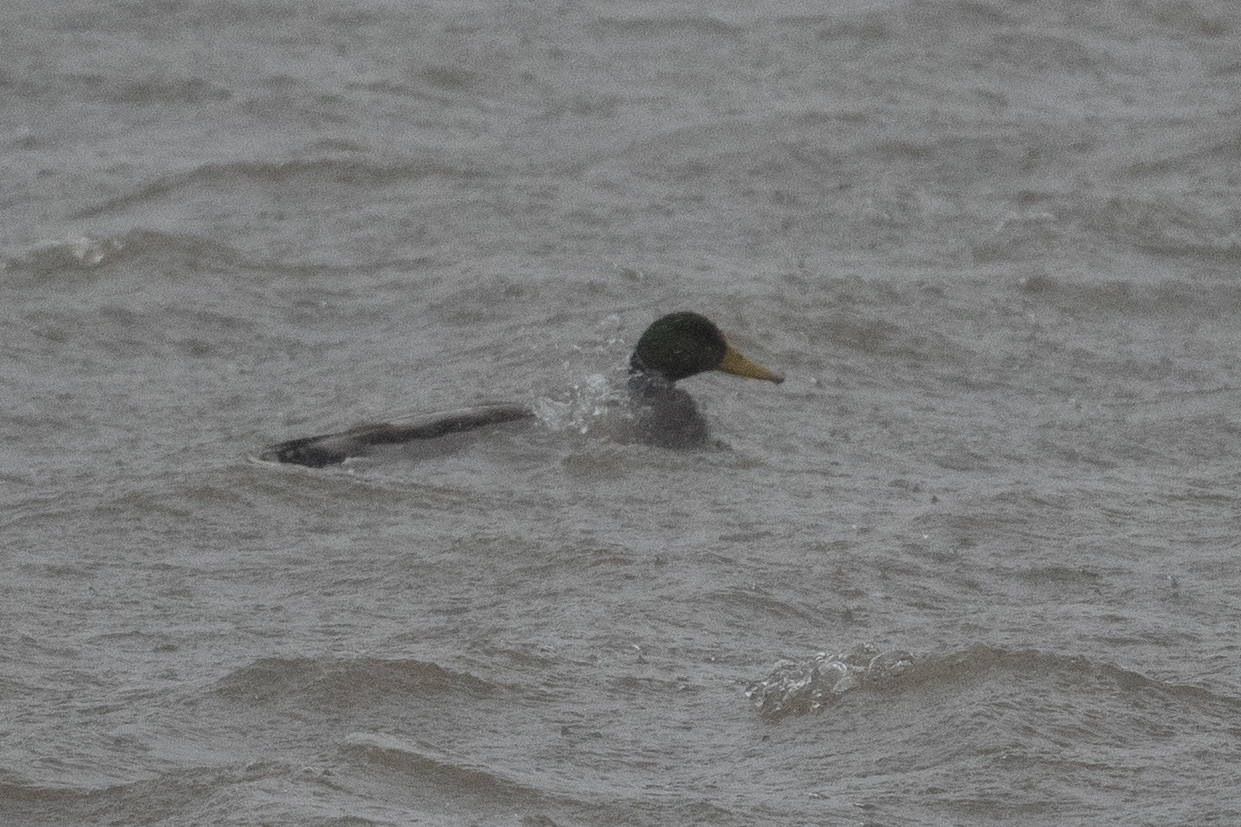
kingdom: Animalia
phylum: Chordata
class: Aves
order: Anseriformes
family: Anatidae
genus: Anas
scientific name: Anas platyrhynchos
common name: Mallard
